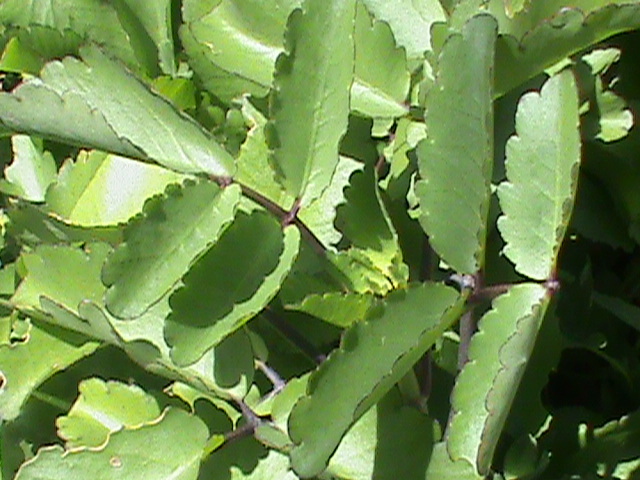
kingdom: Plantae
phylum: Tracheophyta
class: Magnoliopsida
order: Saxifragales
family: Crassulaceae
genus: Kalanchoe
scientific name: Kalanchoe pinnata
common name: Cathedral bells
